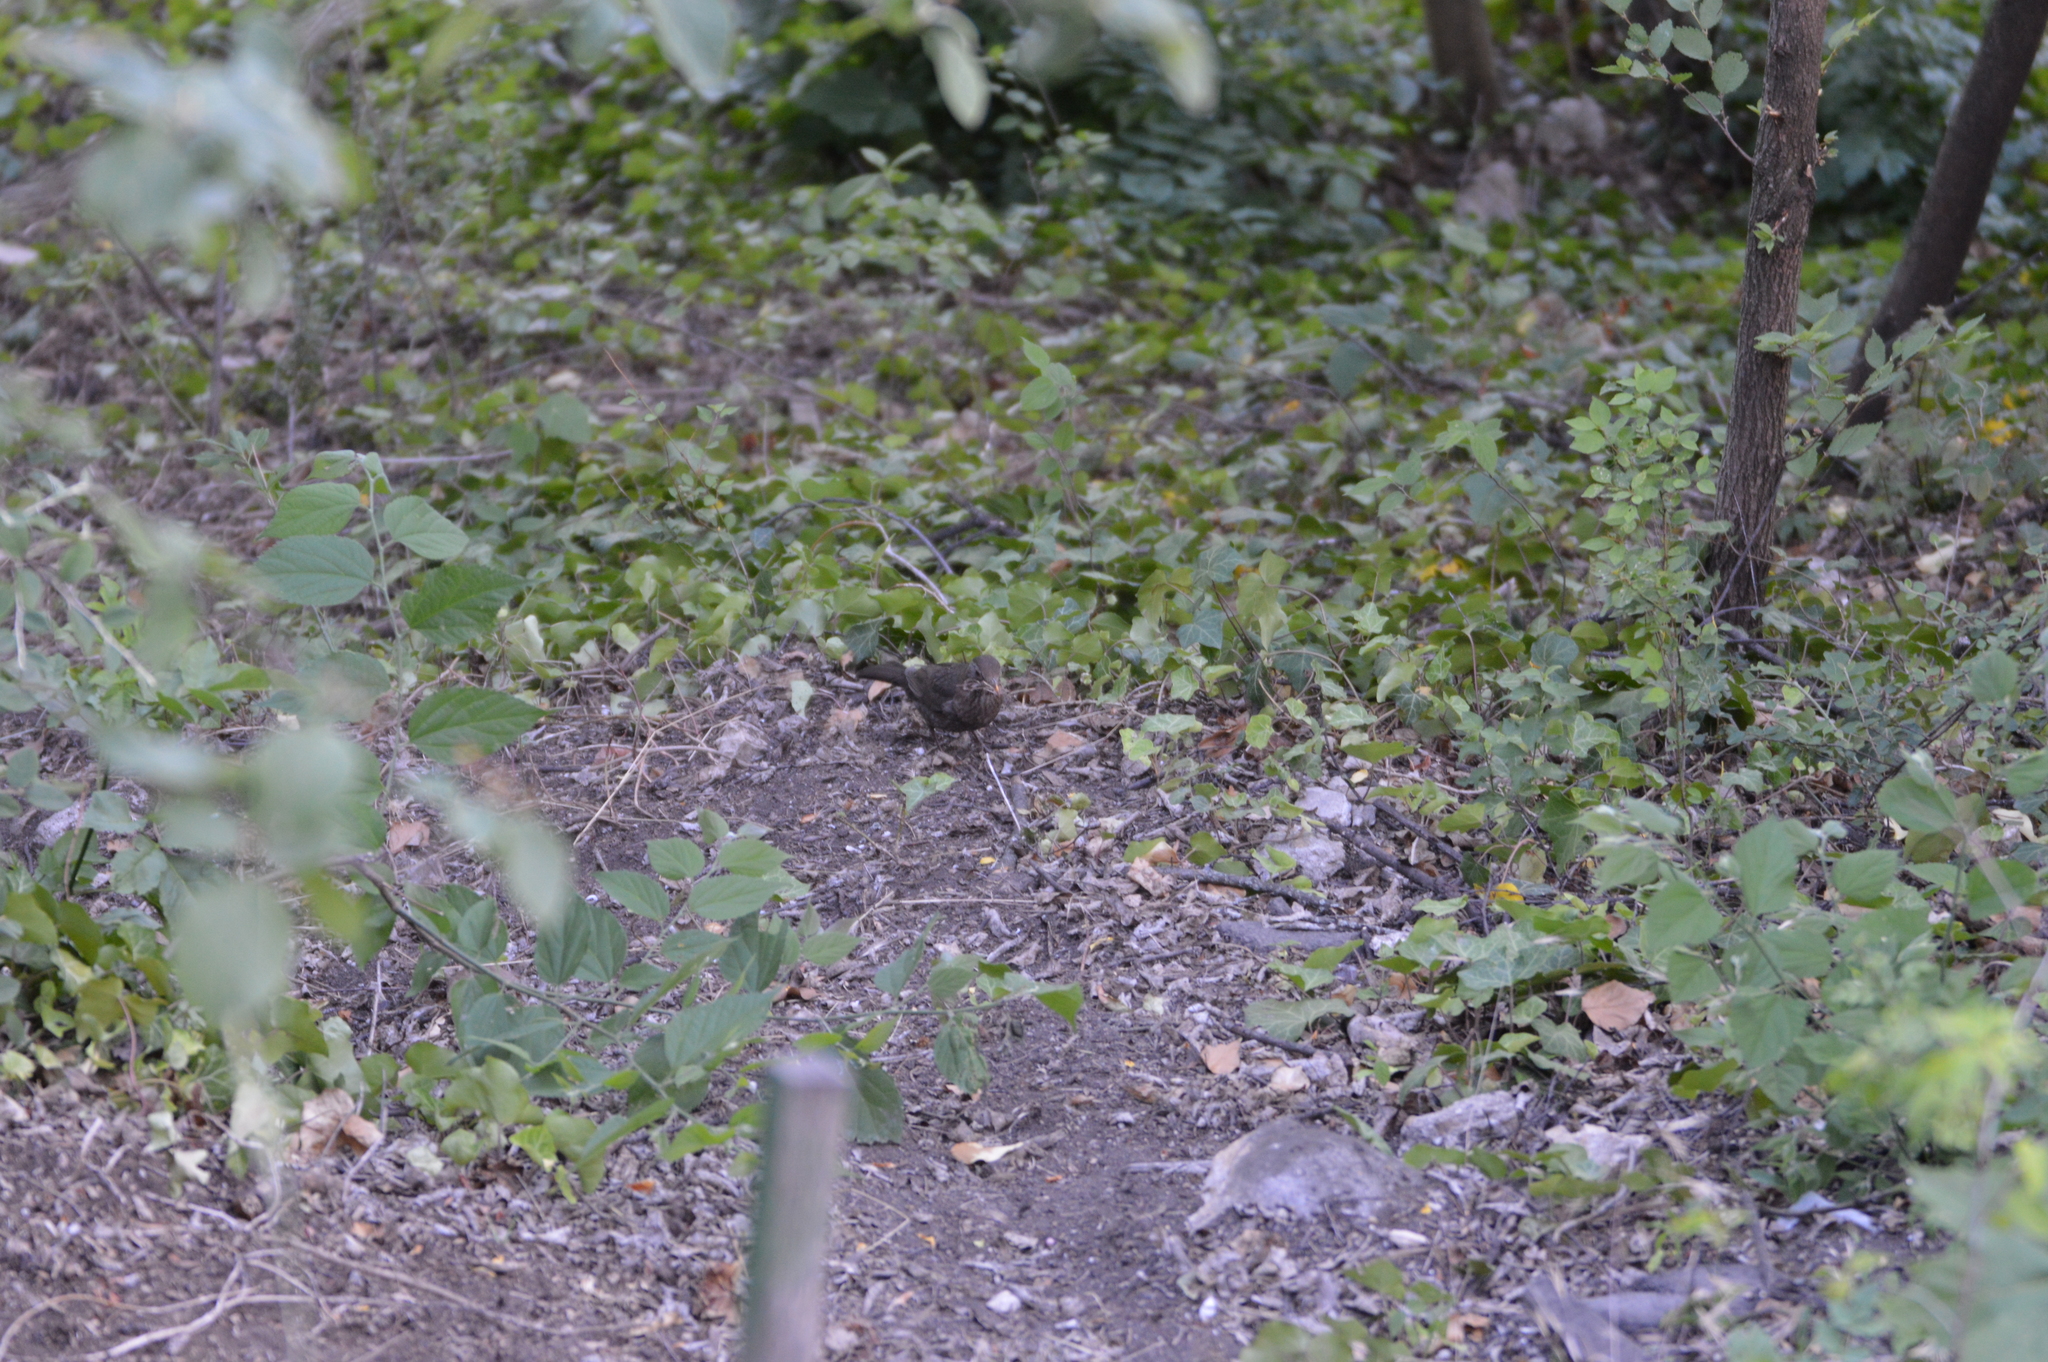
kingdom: Animalia
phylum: Chordata
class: Aves
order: Passeriformes
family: Turdidae
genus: Turdus
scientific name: Turdus merula
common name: Common blackbird
